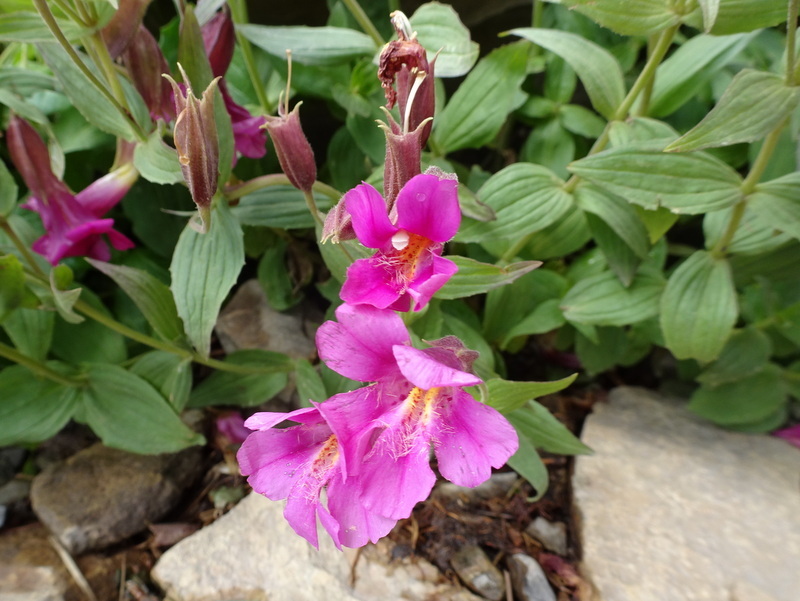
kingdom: Plantae
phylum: Tracheophyta
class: Magnoliopsida
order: Lamiales
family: Phrymaceae
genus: Erythranthe
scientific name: Erythranthe lewisii
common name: Lewis's monkey-flower
